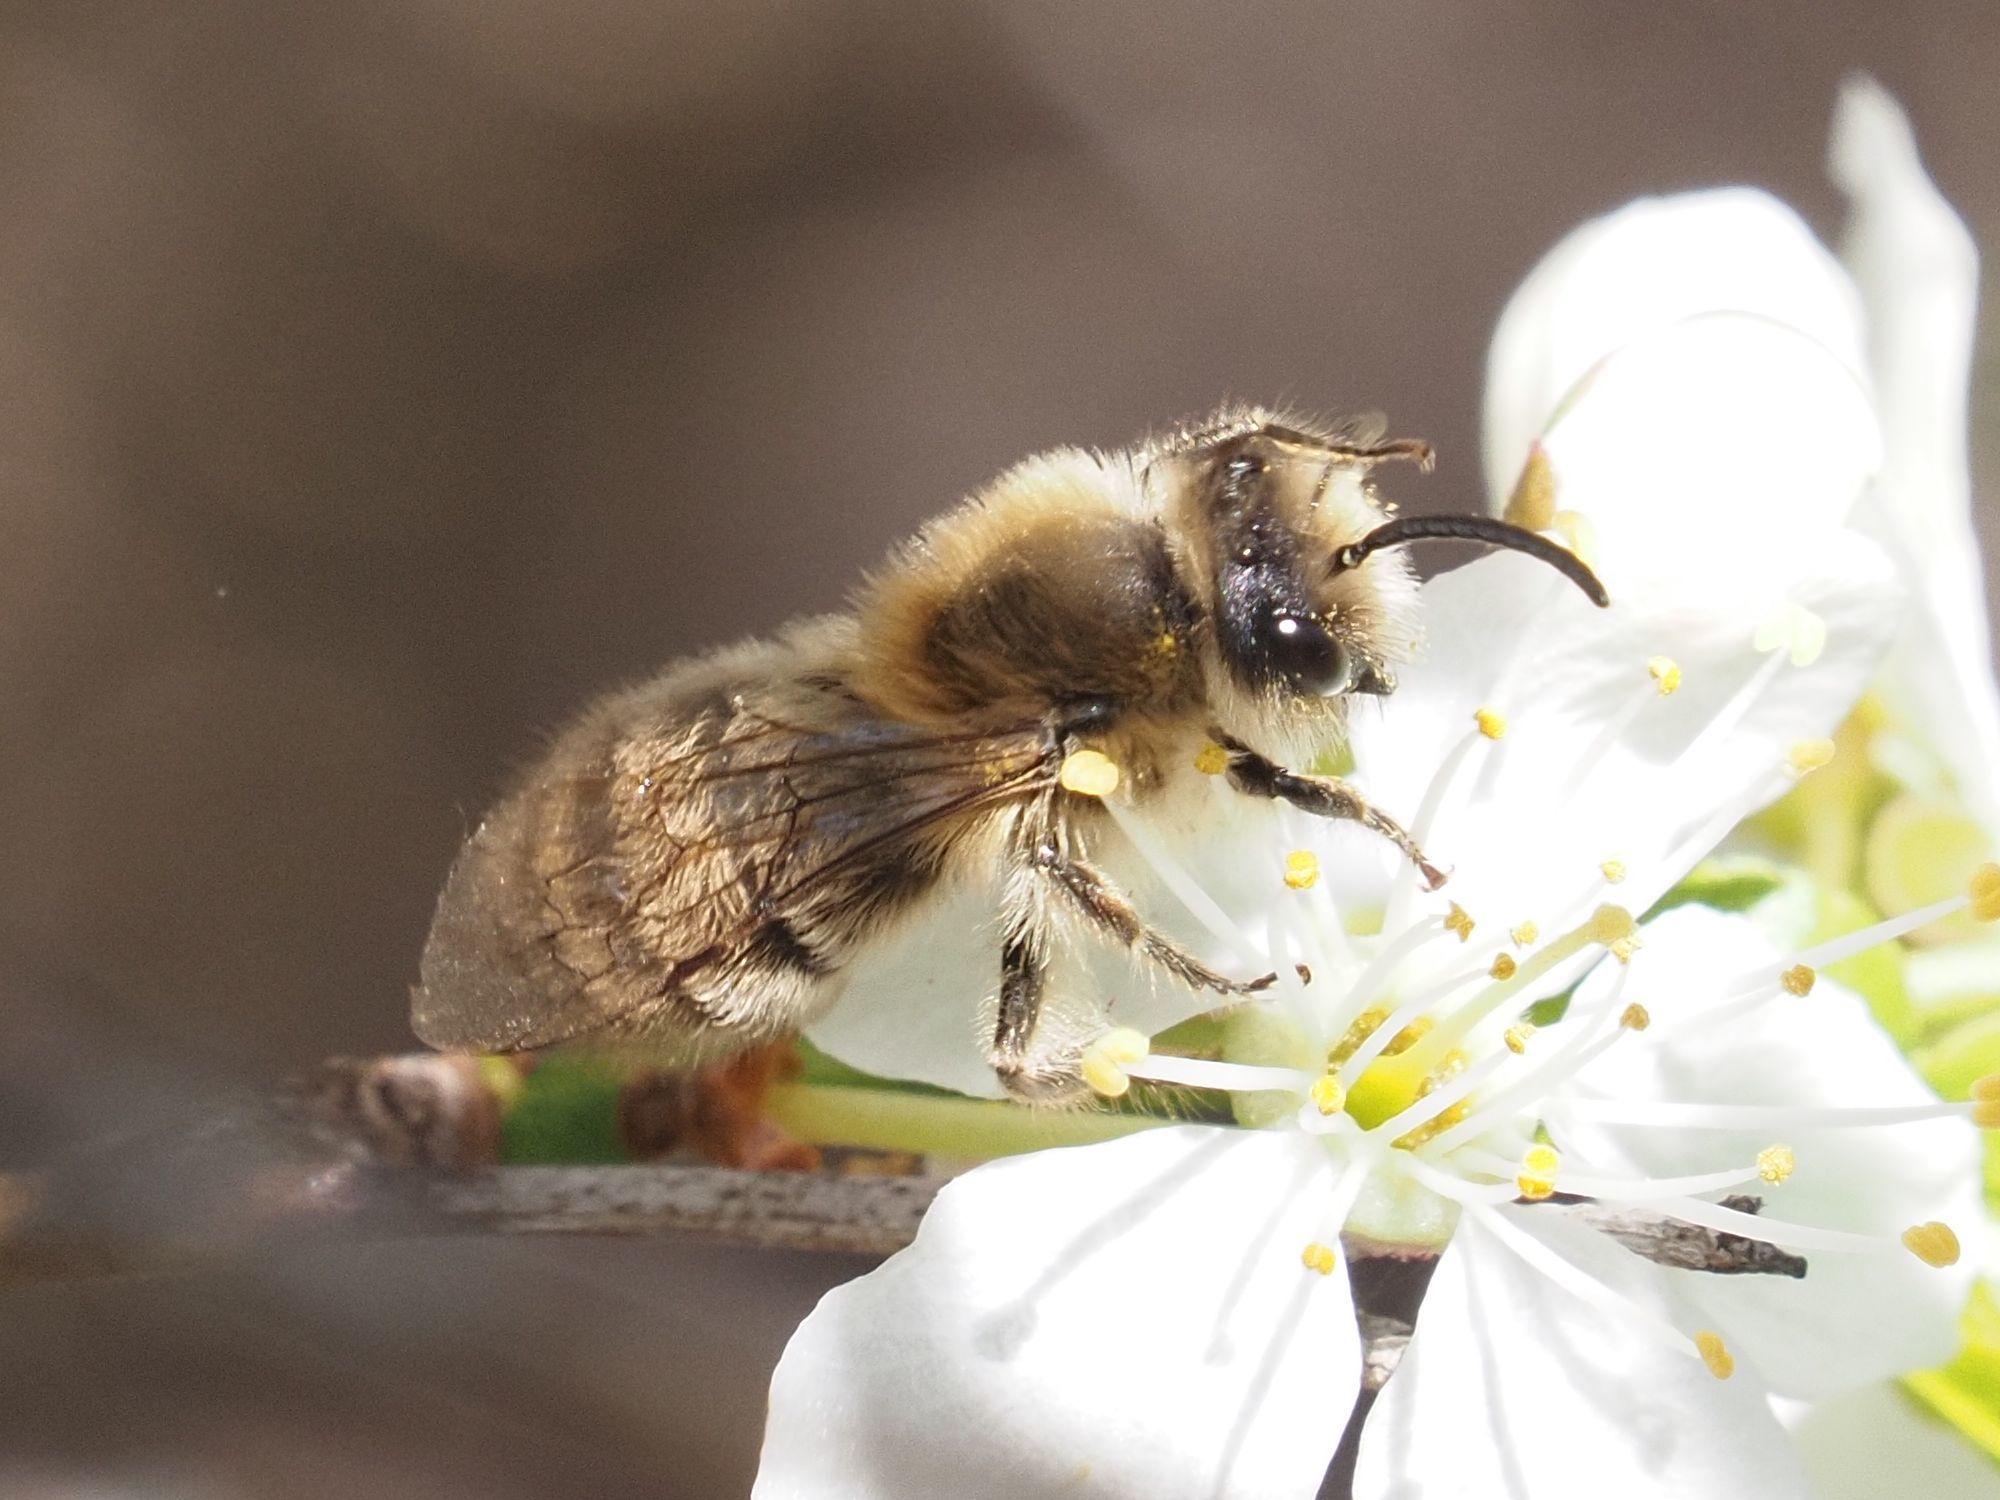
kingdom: Animalia
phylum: Arthropoda
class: Insecta
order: Hymenoptera
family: Colletidae
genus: Colletes
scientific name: Colletes cunicularius
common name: Early colletes
